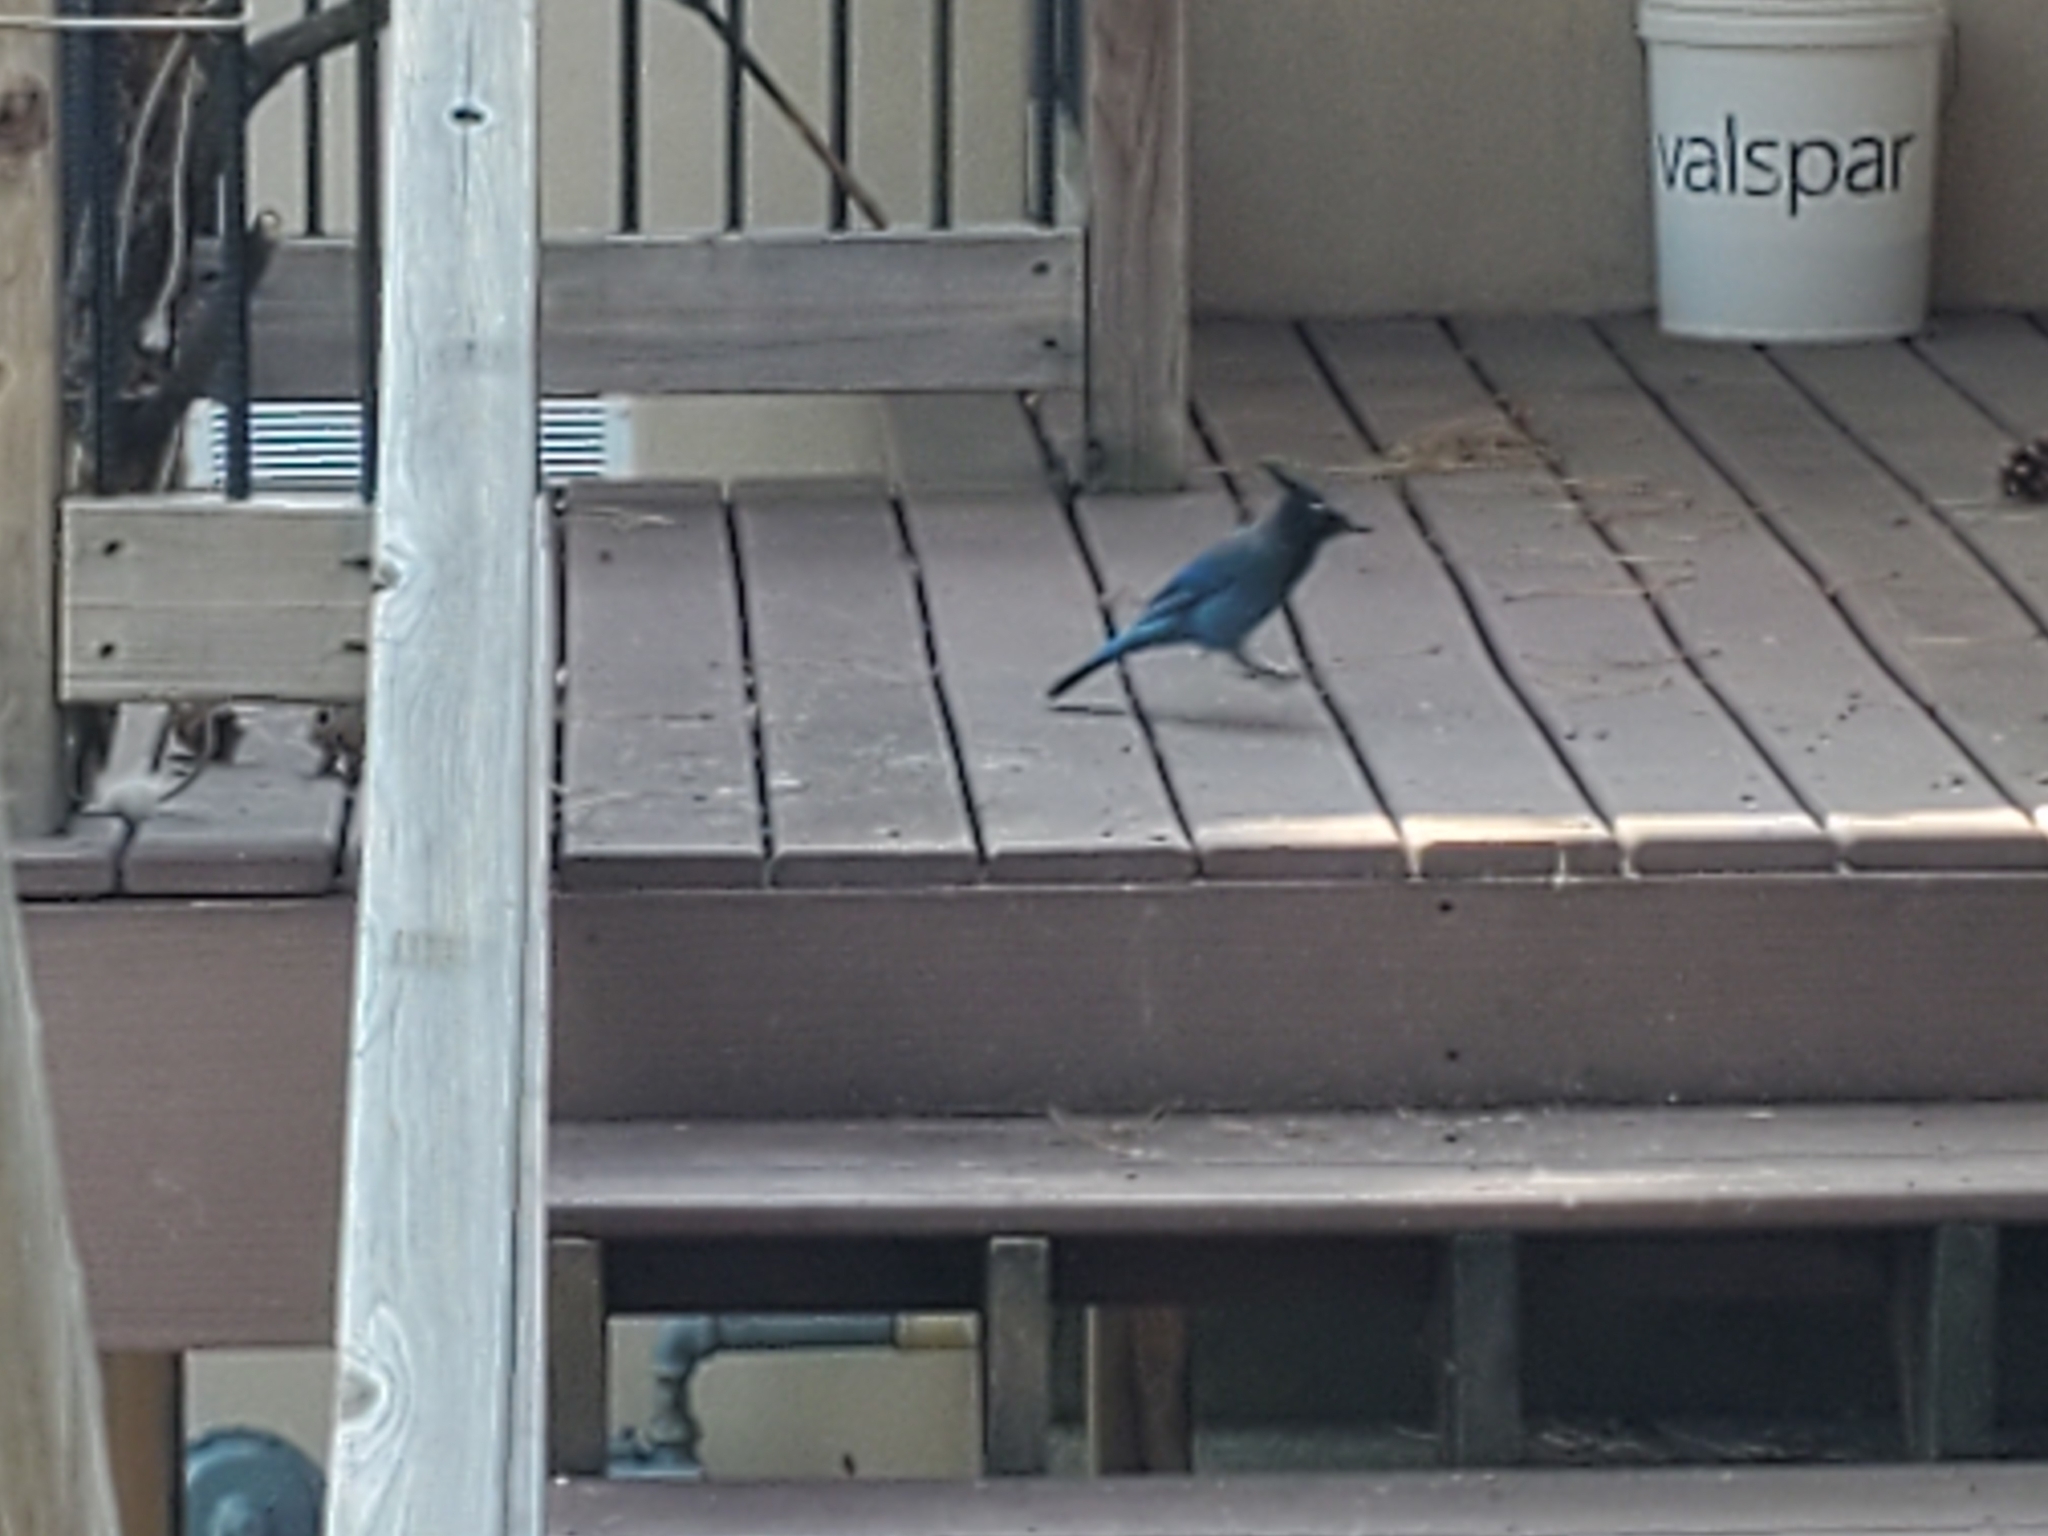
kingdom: Animalia
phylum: Chordata
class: Aves
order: Passeriformes
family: Corvidae
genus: Cyanocitta
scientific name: Cyanocitta stelleri
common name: Steller's jay
